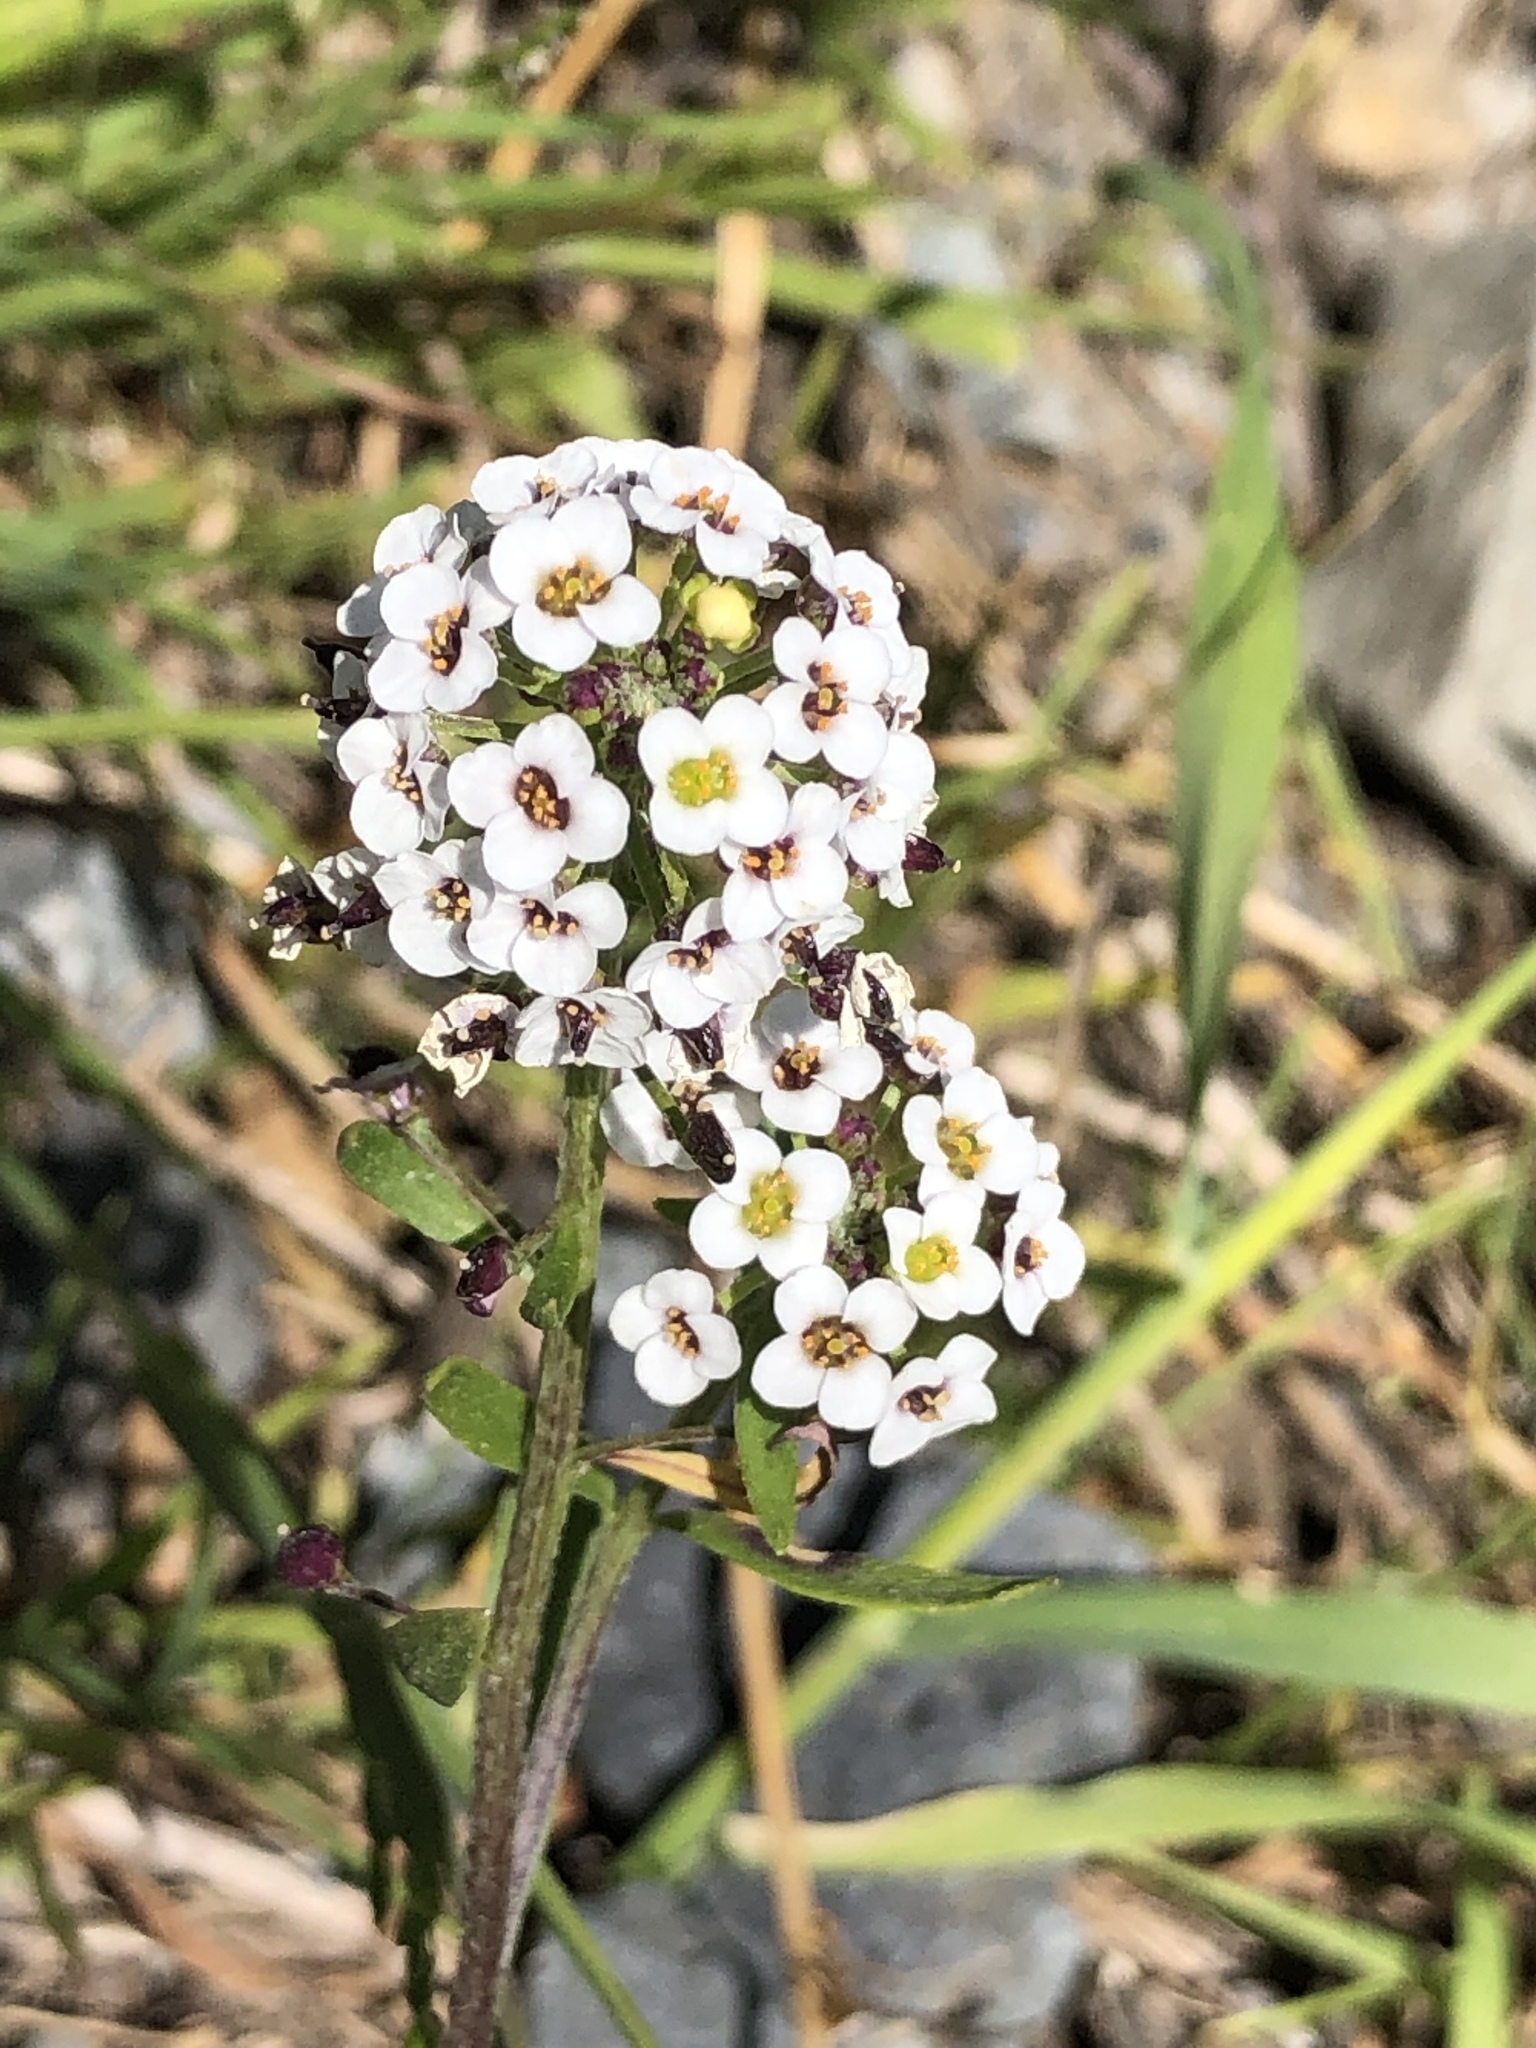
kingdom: Plantae
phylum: Tracheophyta
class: Magnoliopsida
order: Brassicales
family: Brassicaceae
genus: Lobularia
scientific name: Lobularia maritima
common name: Sweet alison
